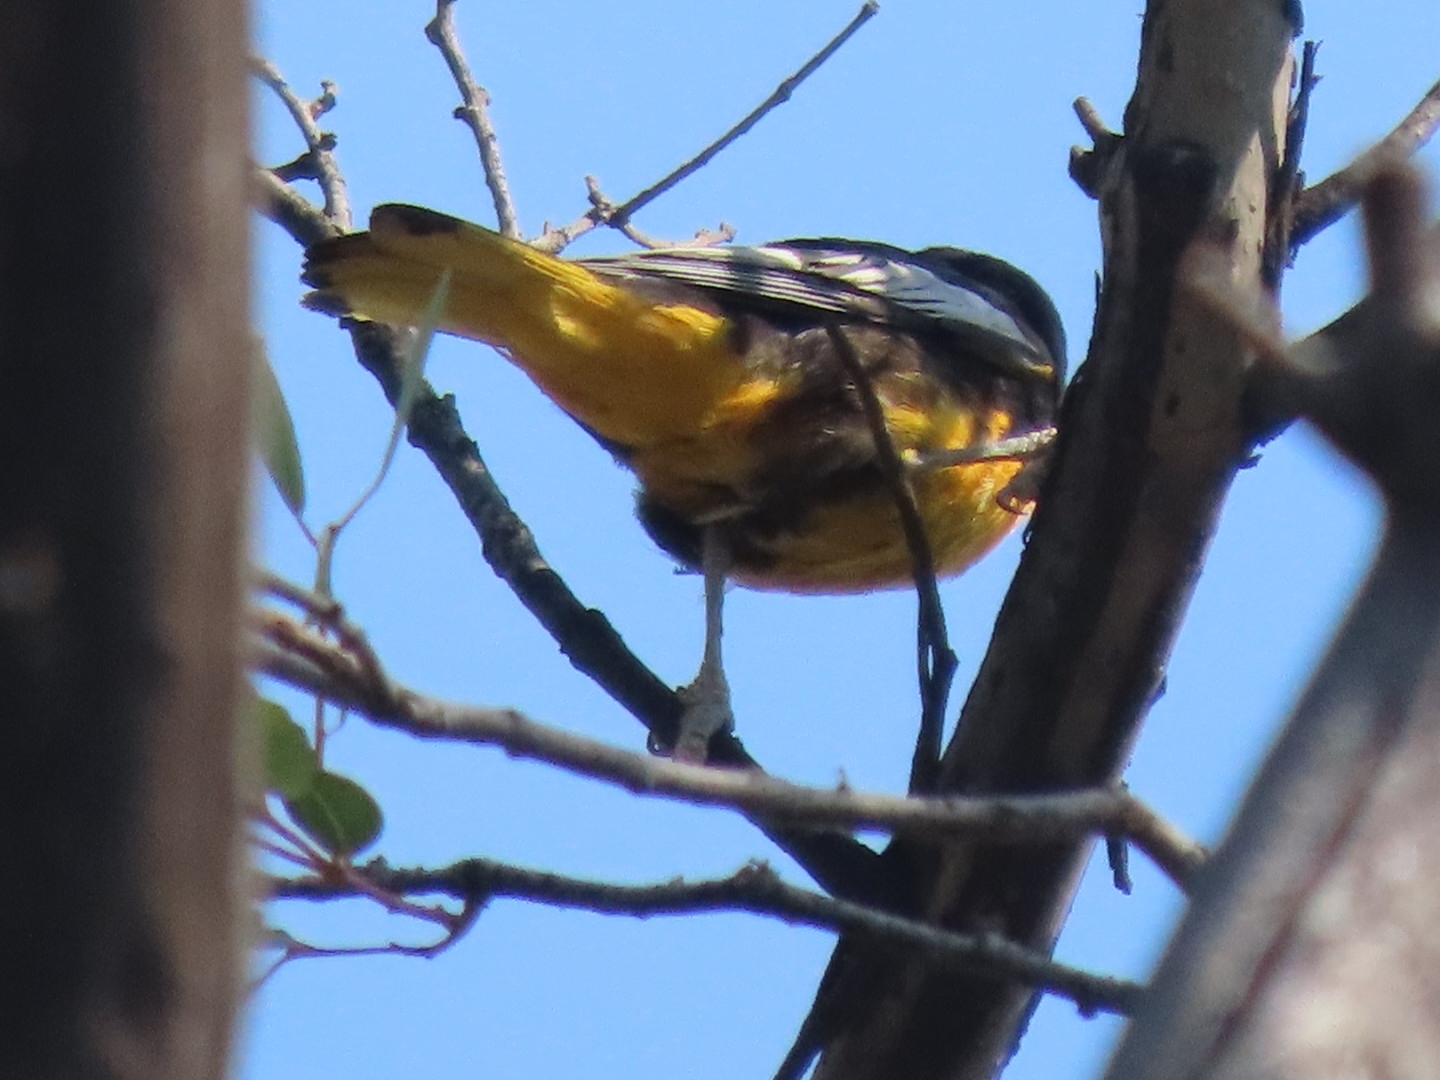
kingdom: Animalia
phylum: Chordata
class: Aves
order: Passeriformes
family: Icteridae
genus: Icterus
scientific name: Icterus abeillei
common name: Black-backed oriole
